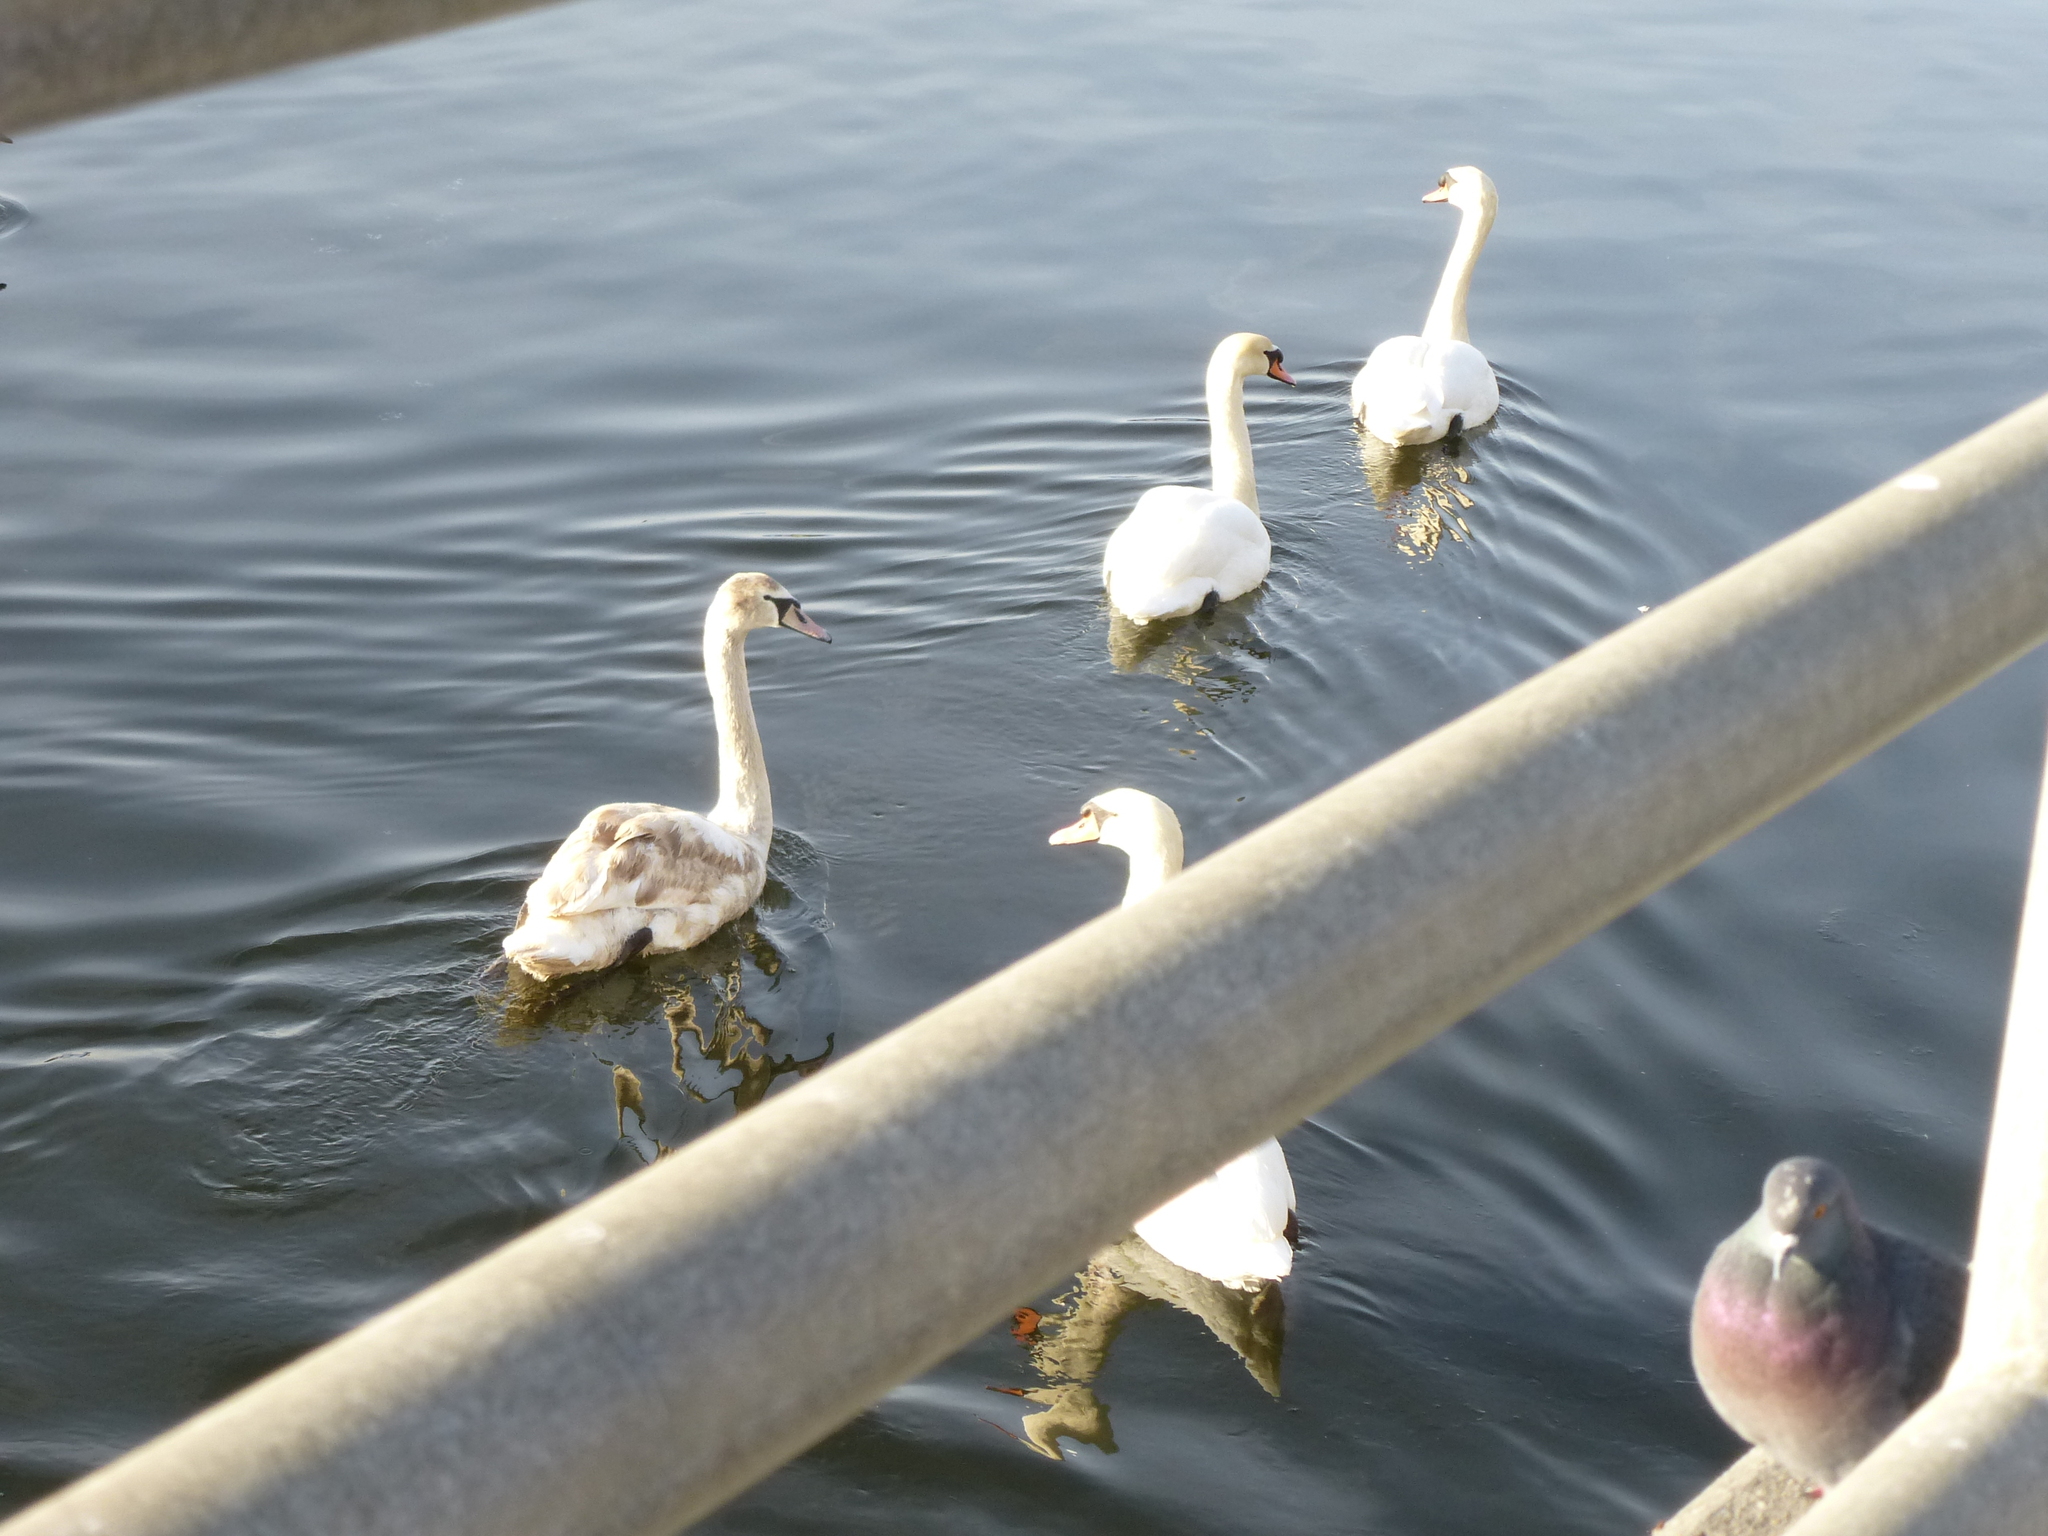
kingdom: Animalia
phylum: Chordata
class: Aves
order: Anseriformes
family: Anatidae
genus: Cygnus
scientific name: Cygnus olor
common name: Mute swan
